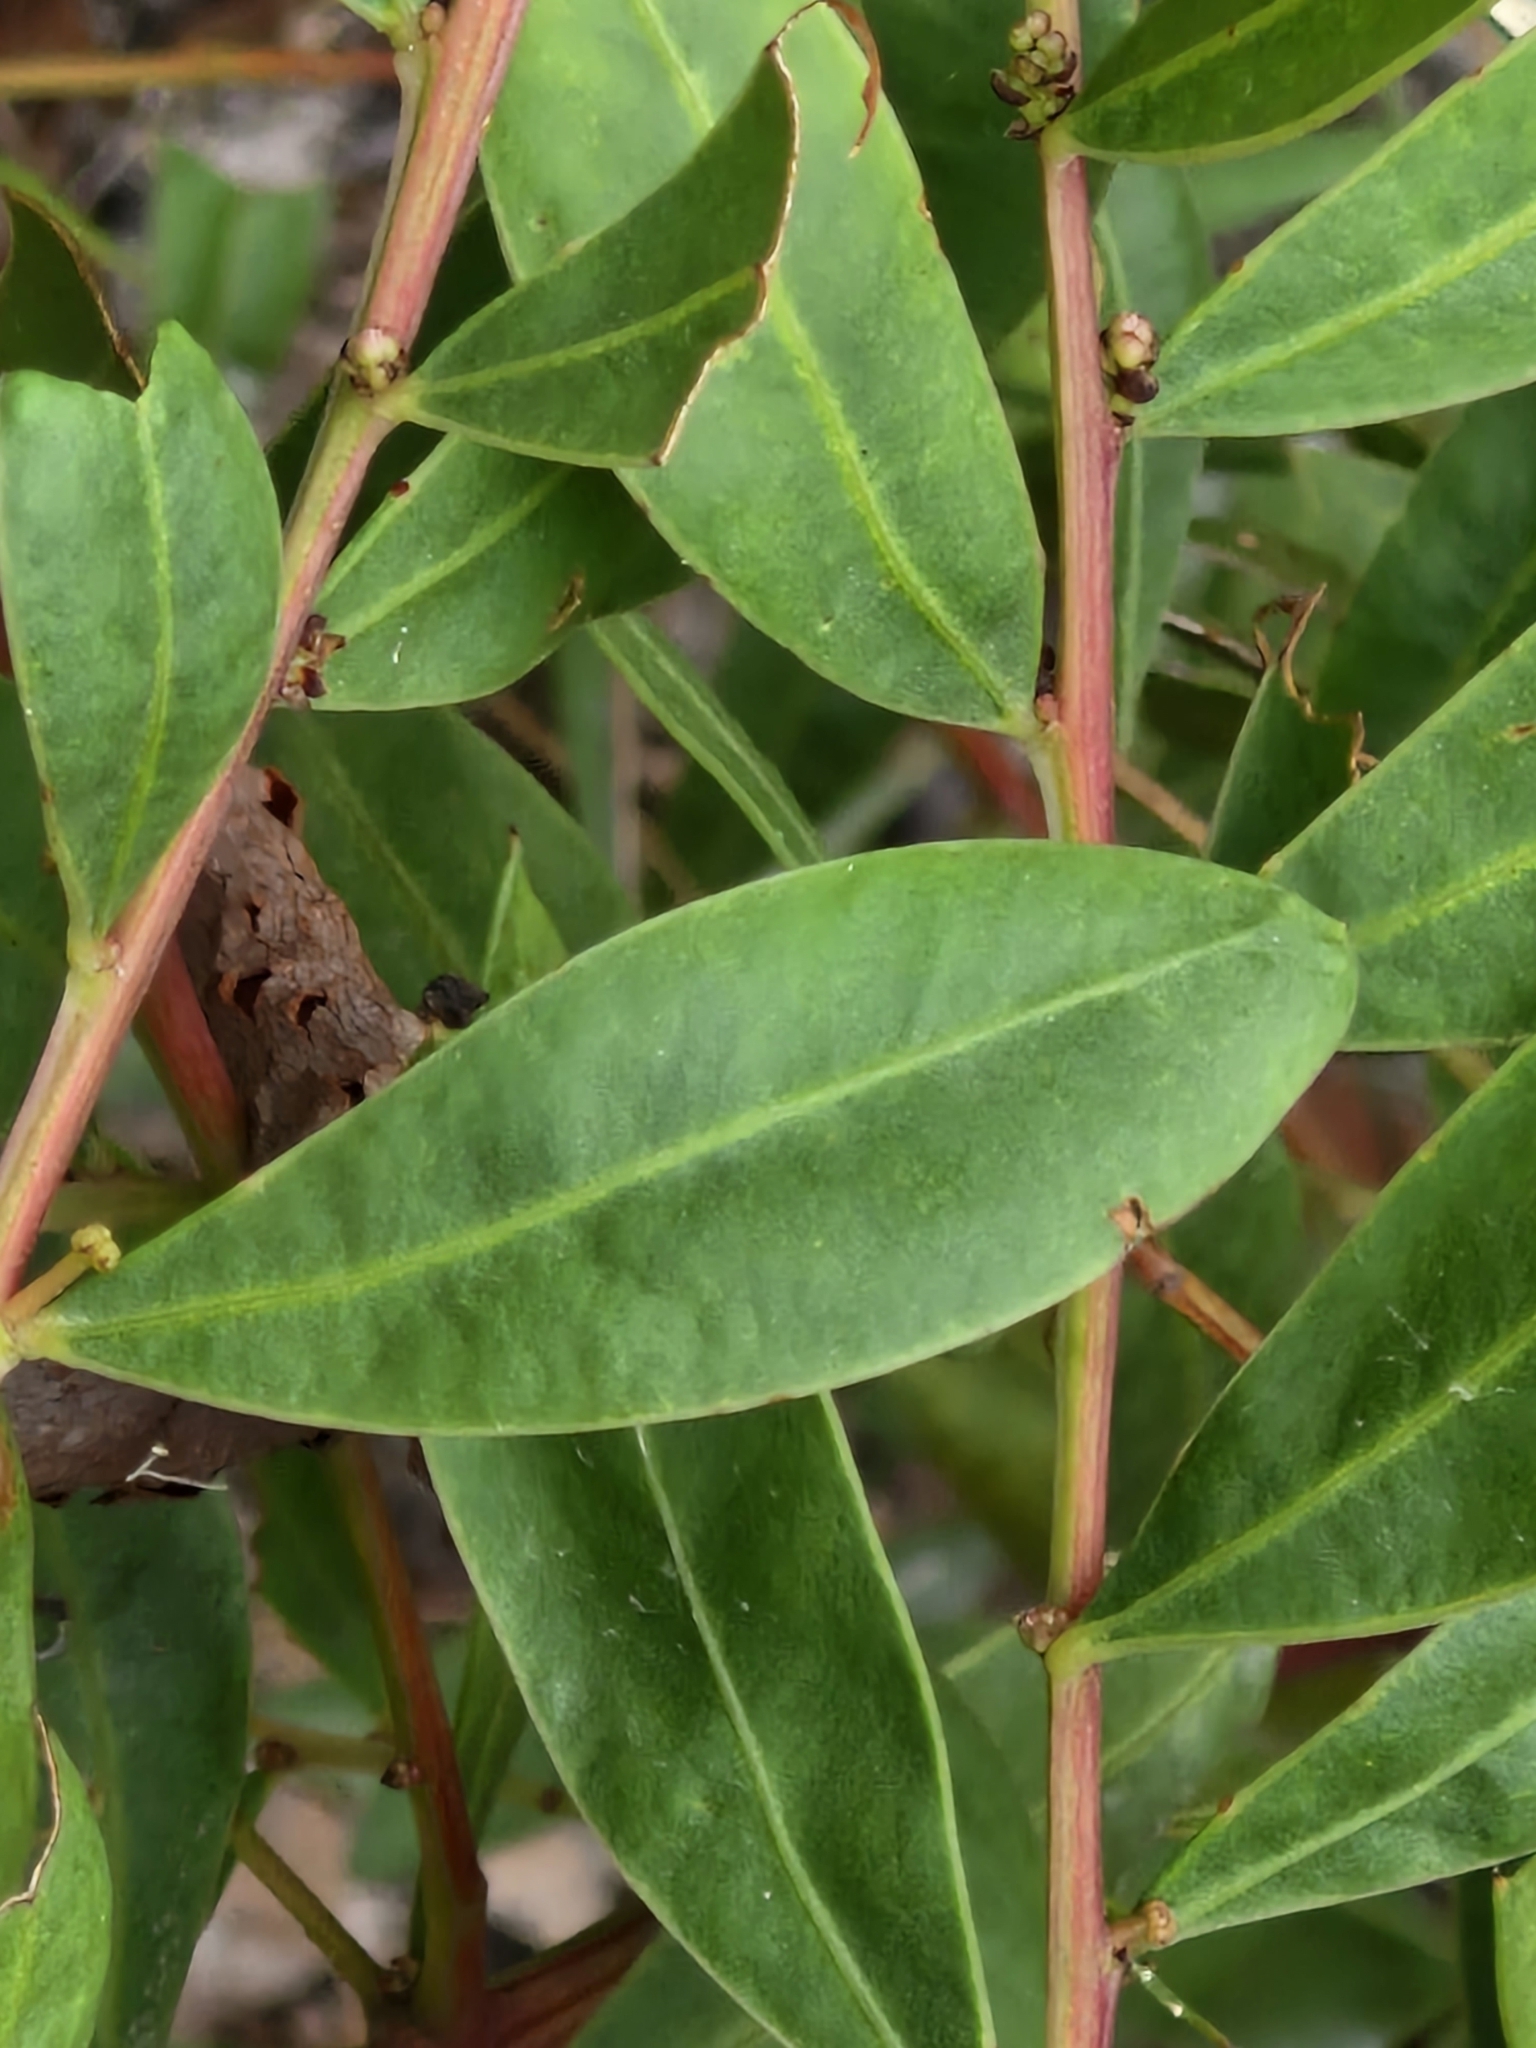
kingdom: Plantae
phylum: Tracheophyta
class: Magnoliopsida
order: Fabales
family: Fabaceae
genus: Acacia
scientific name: Acacia myrtifolia
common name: Myrtle wattle
